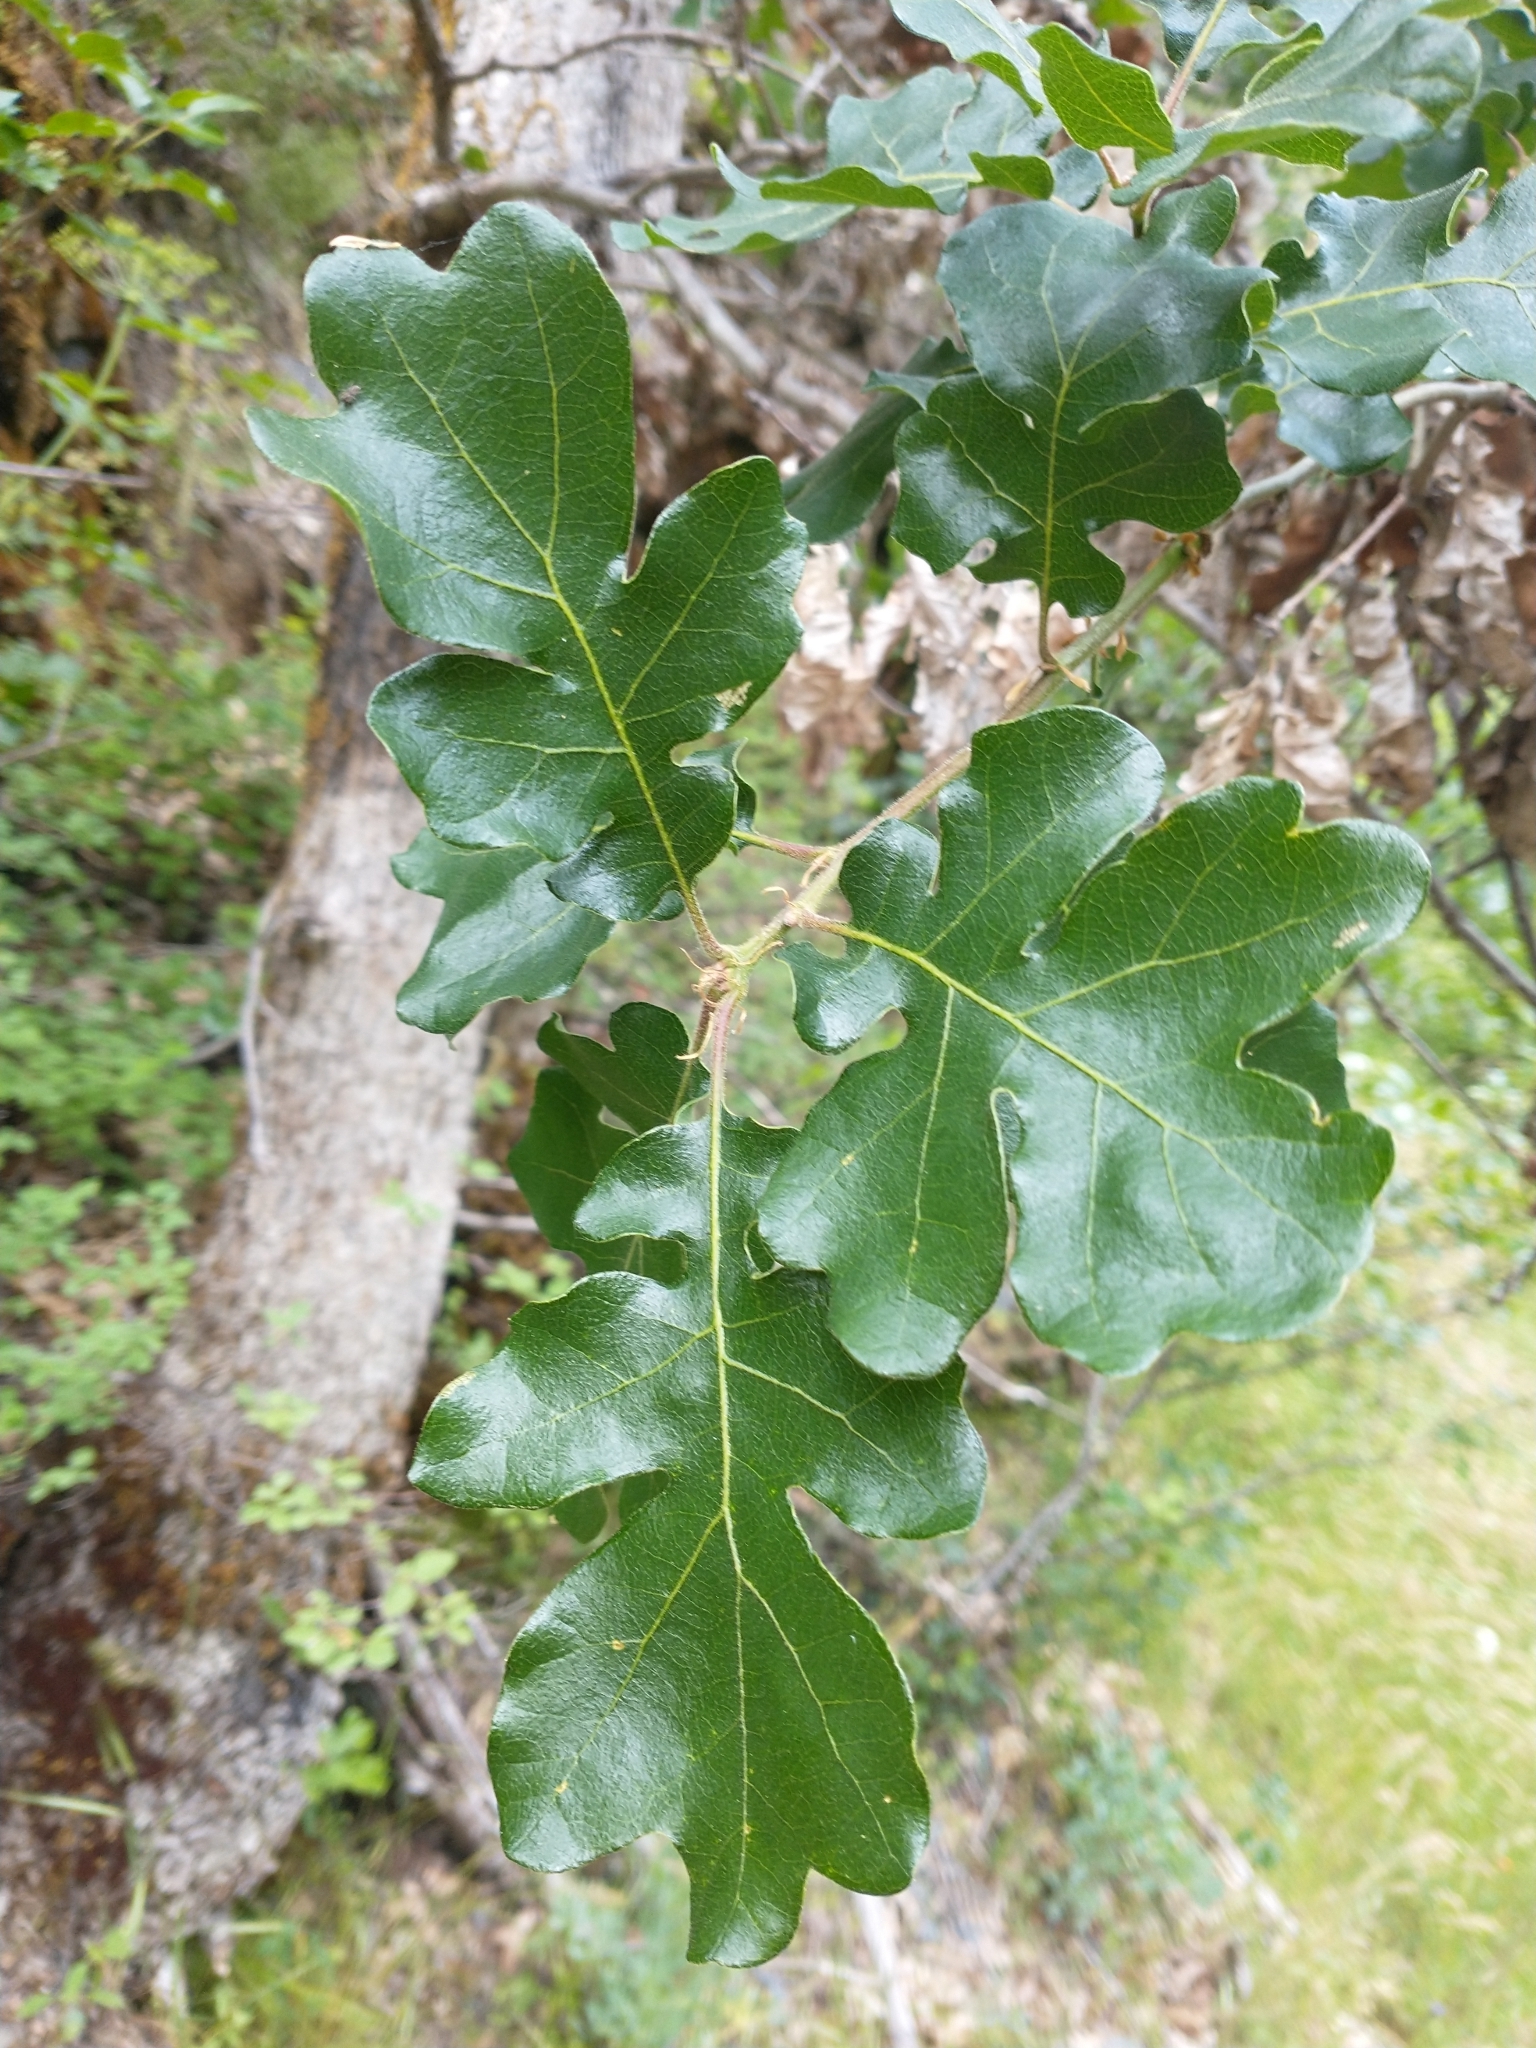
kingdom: Plantae
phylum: Tracheophyta
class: Magnoliopsida
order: Fagales
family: Fagaceae
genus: Quercus
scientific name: Quercus garryana
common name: Garry oak
